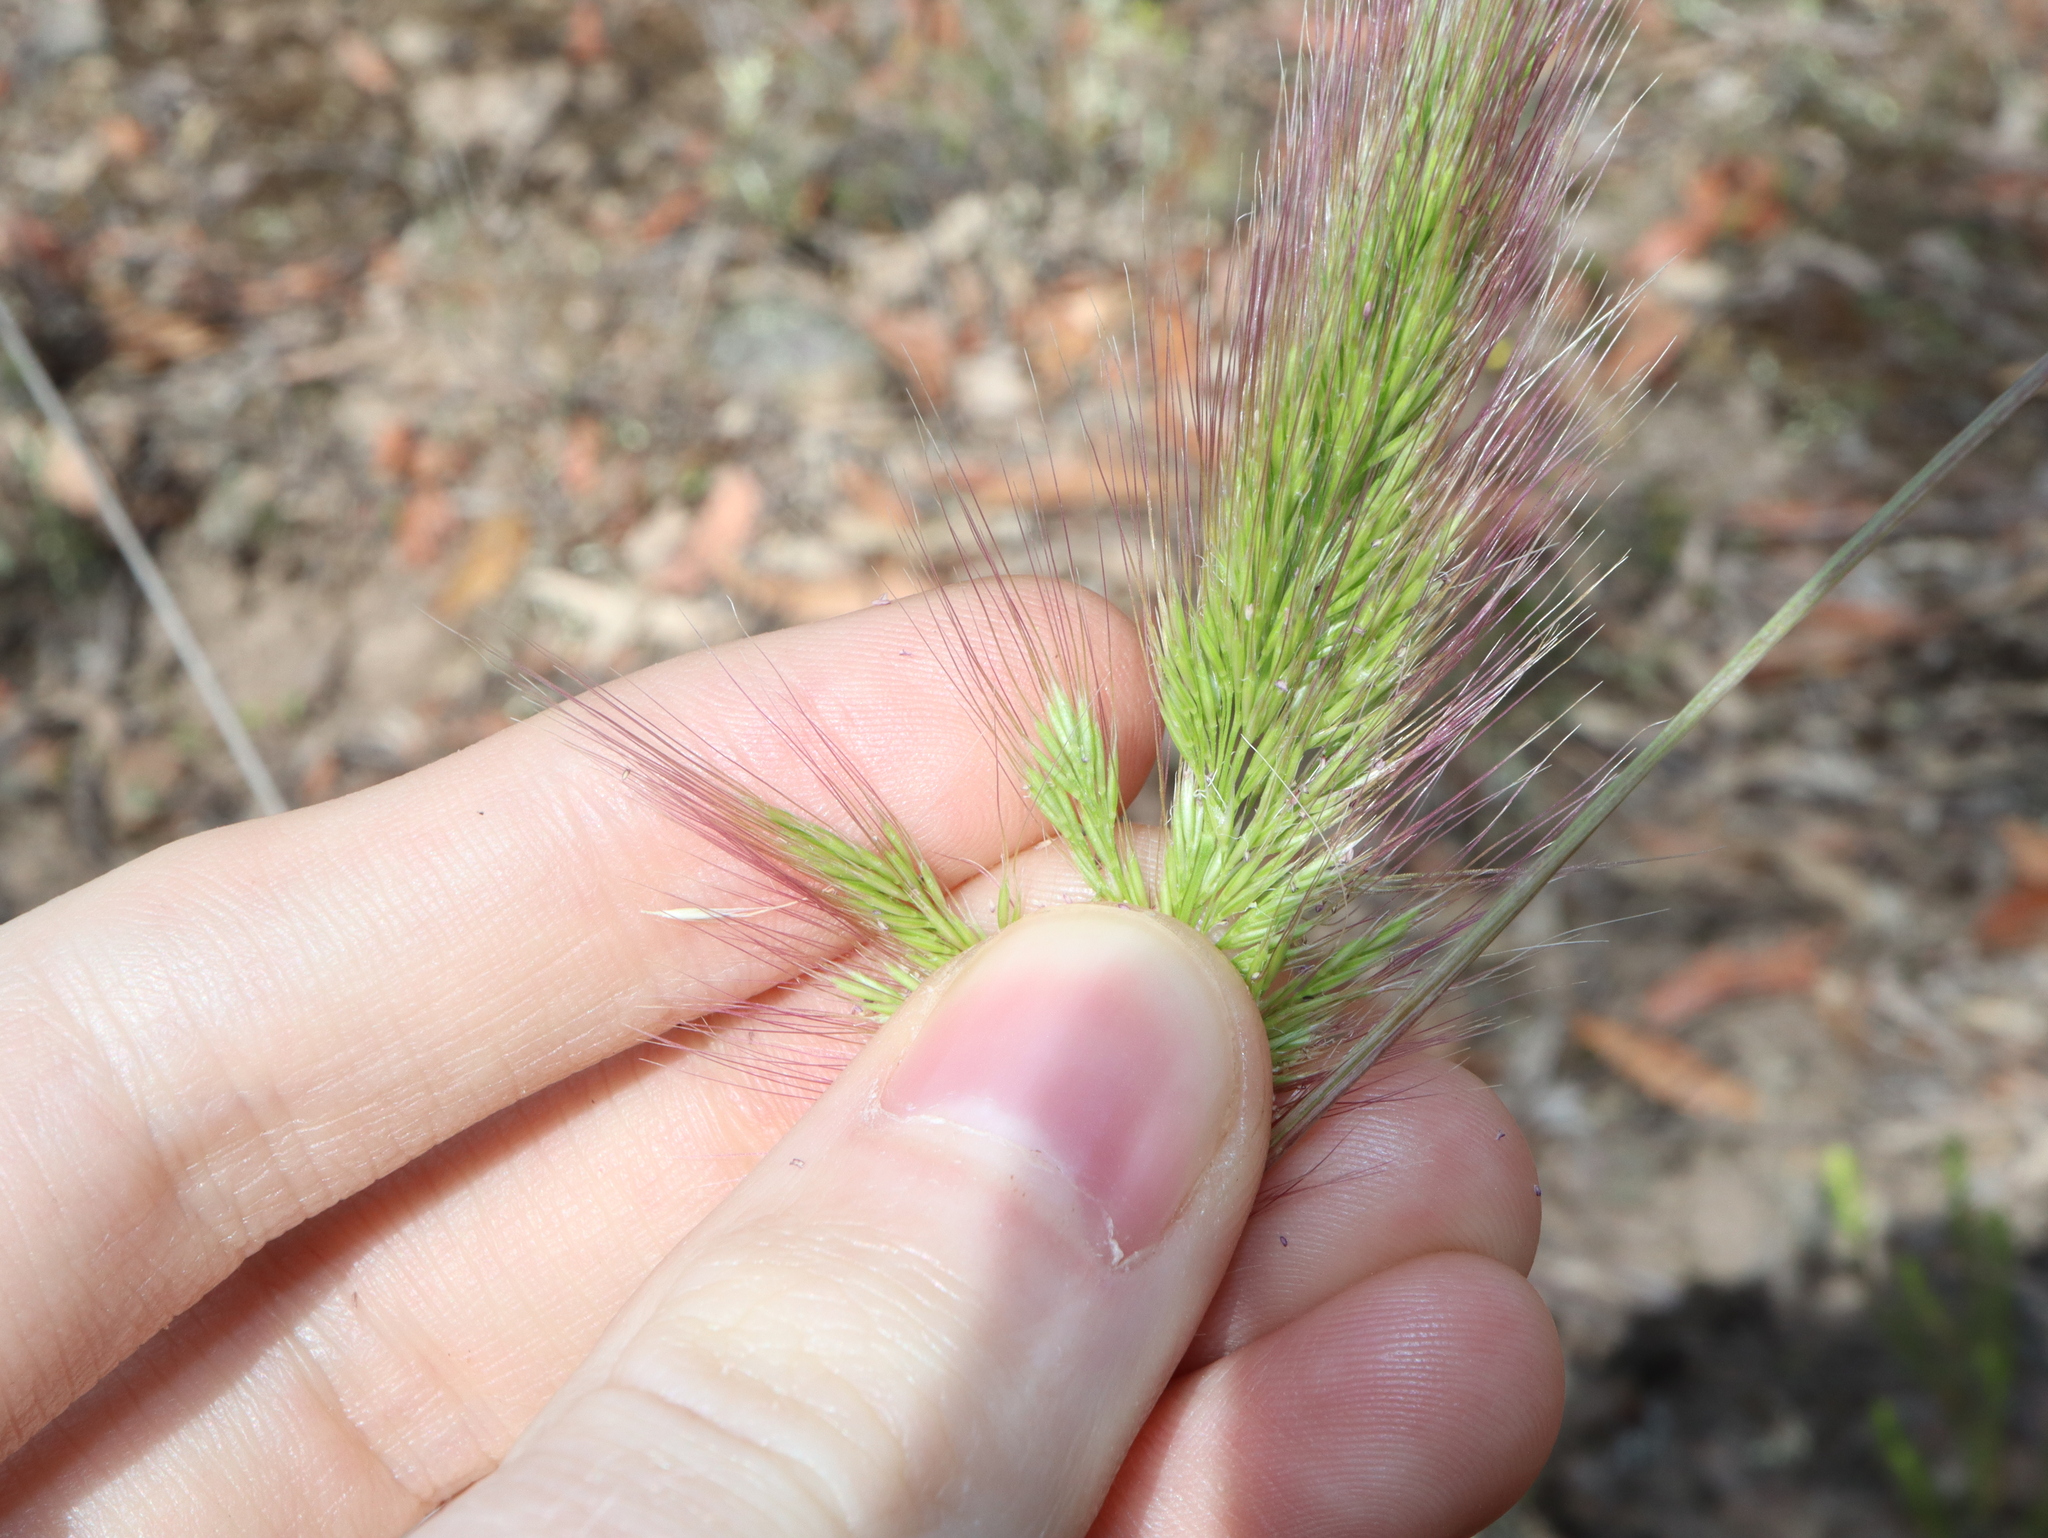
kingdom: Plantae
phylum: Tracheophyta
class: Liliopsida
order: Poales
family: Poaceae
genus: Dichelachne
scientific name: Dichelachne
